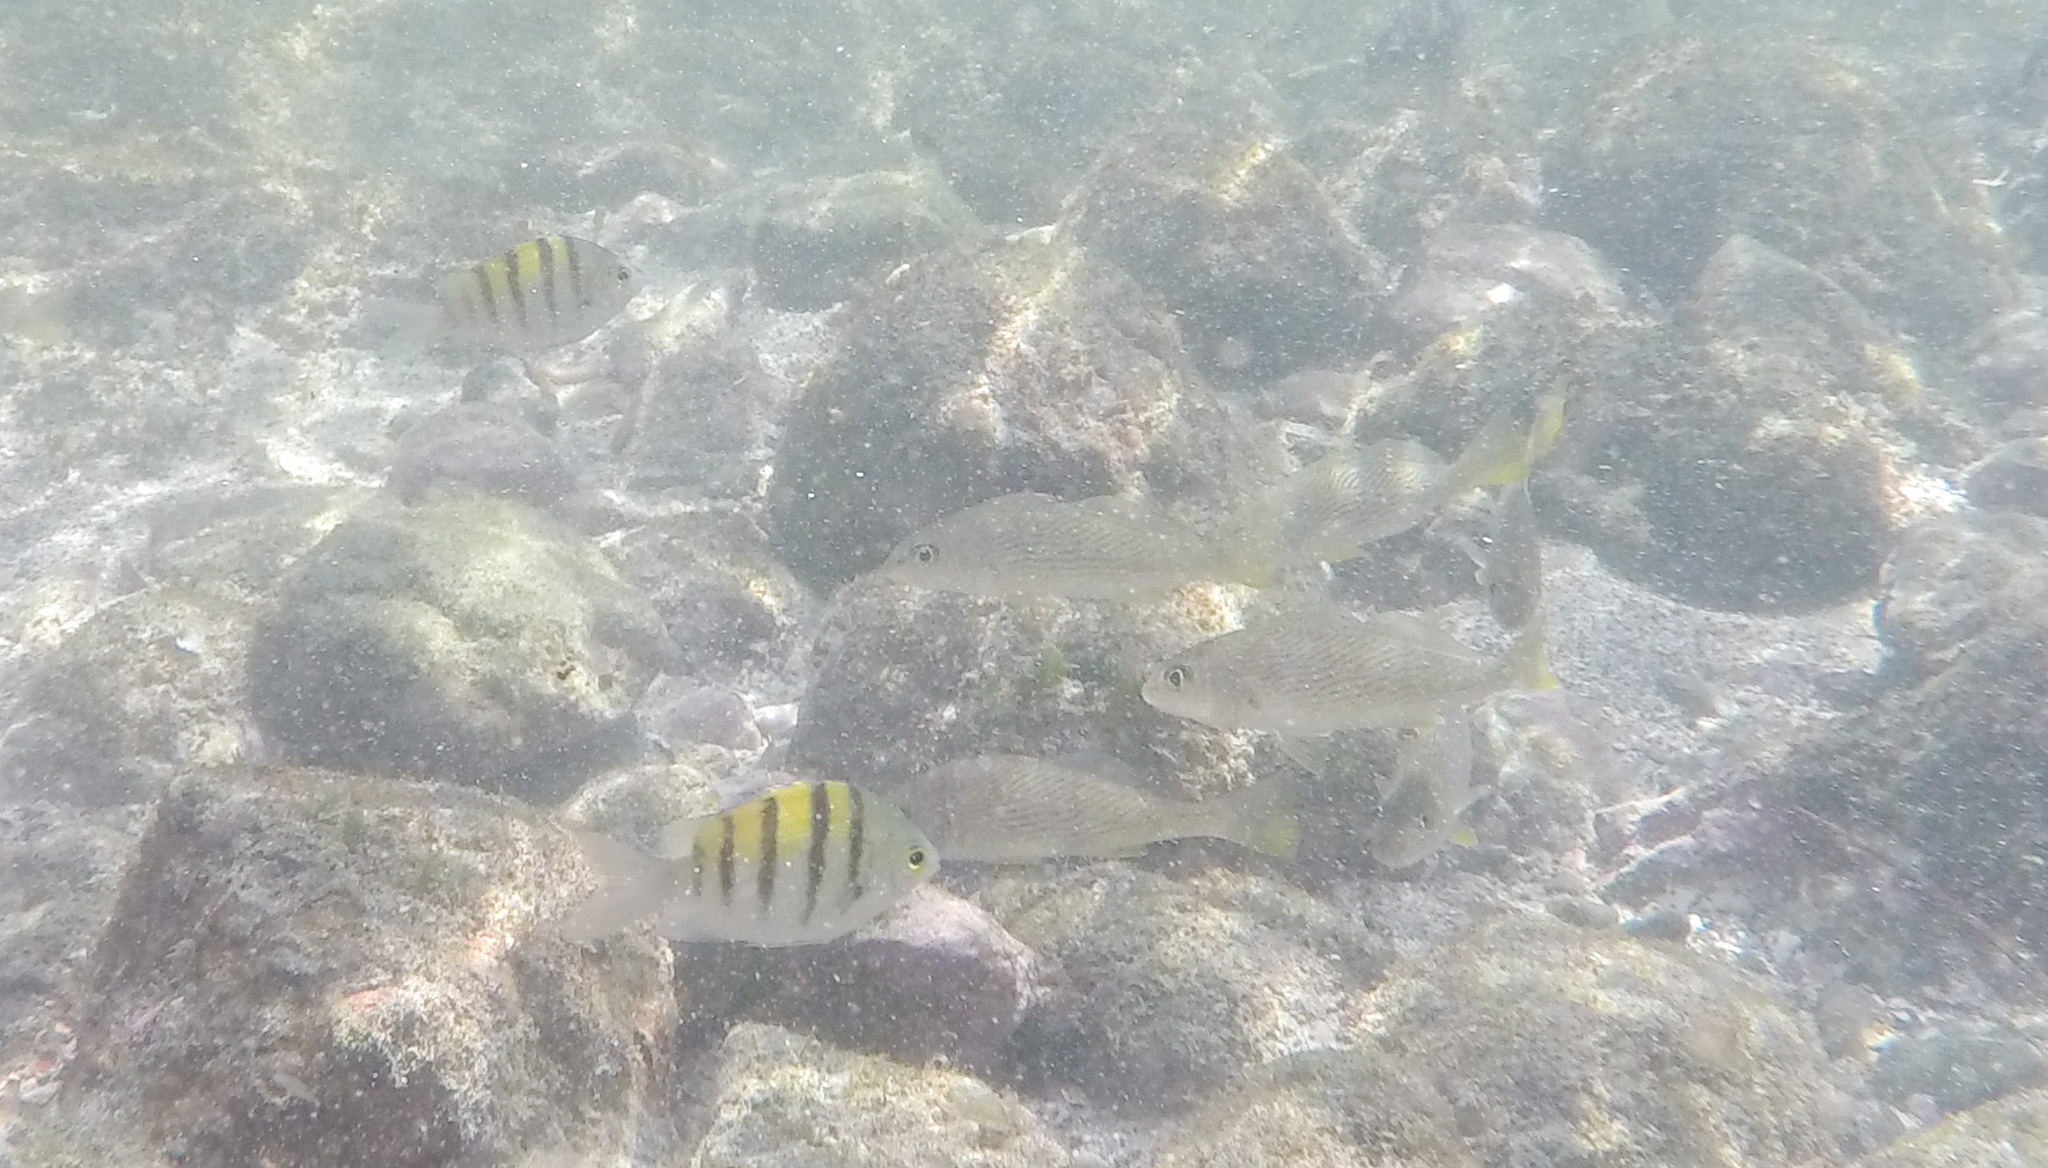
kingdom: Animalia
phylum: Chordata
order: Perciformes
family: Pomacentridae
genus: Abudefduf
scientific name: Abudefduf troschelii
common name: Panamic sergeant major
